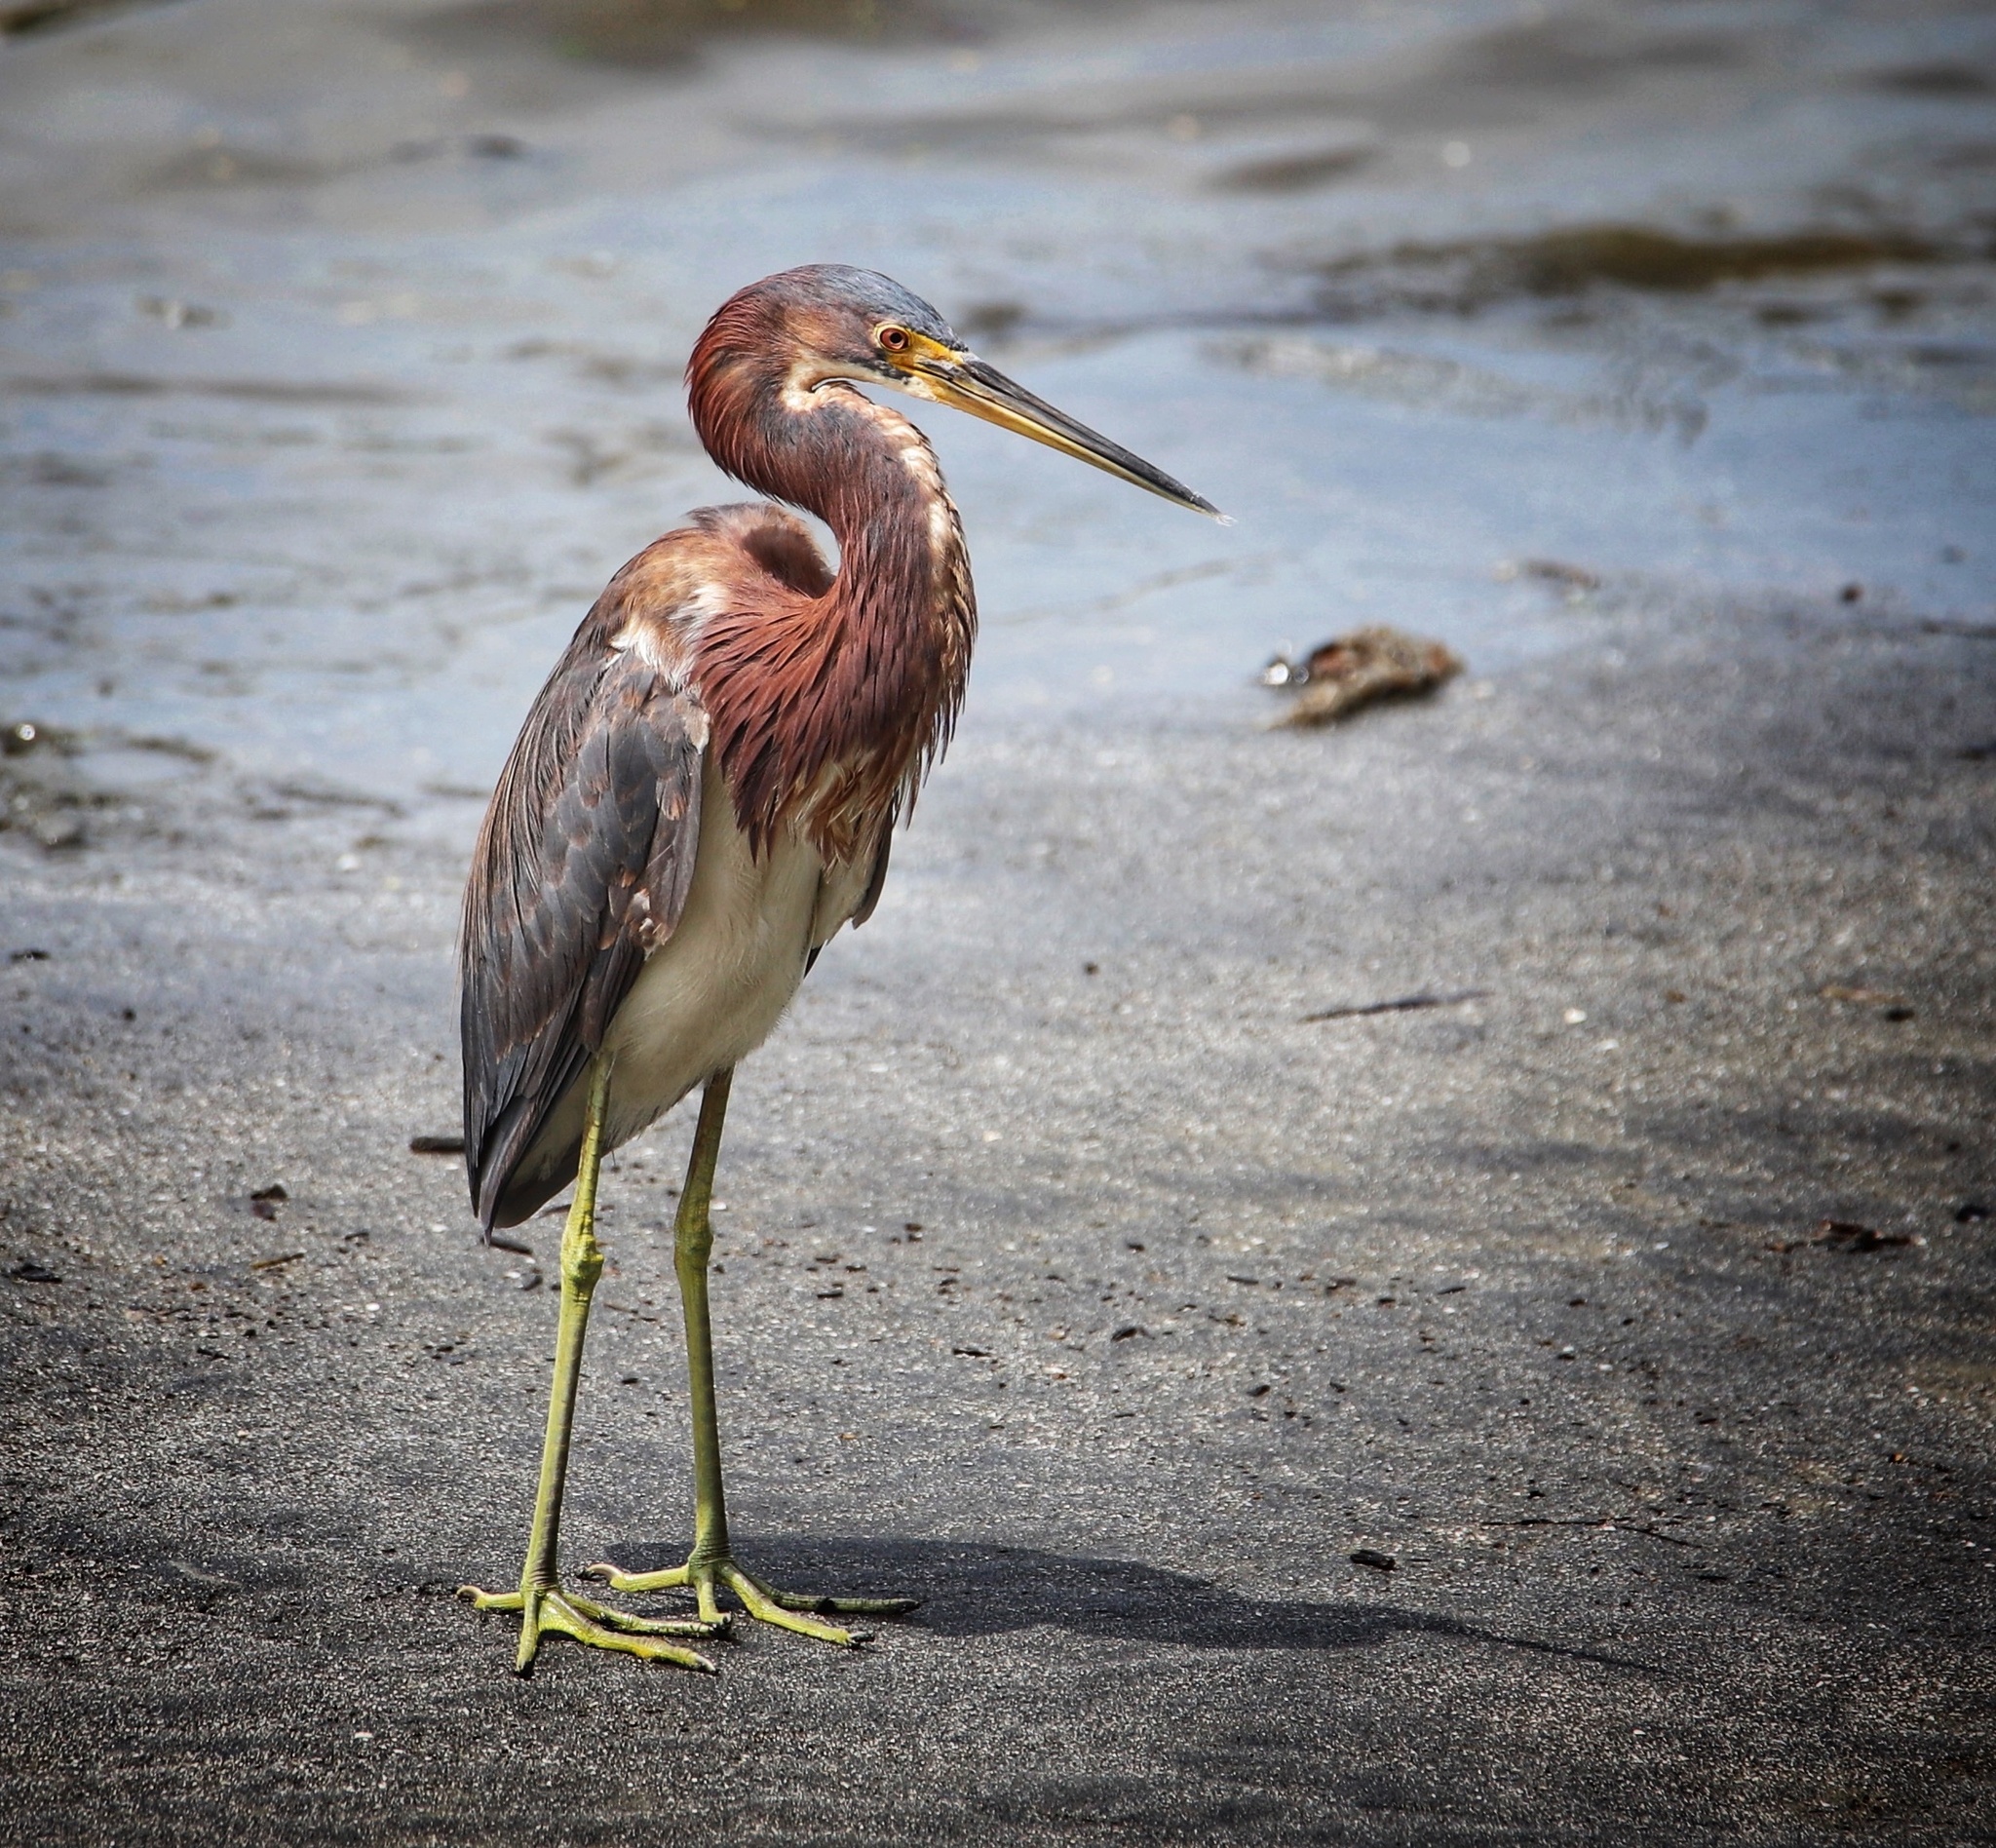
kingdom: Animalia
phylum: Chordata
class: Aves
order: Pelecaniformes
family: Ardeidae
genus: Egretta
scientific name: Egretta tricolor
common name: Tricolored heron
